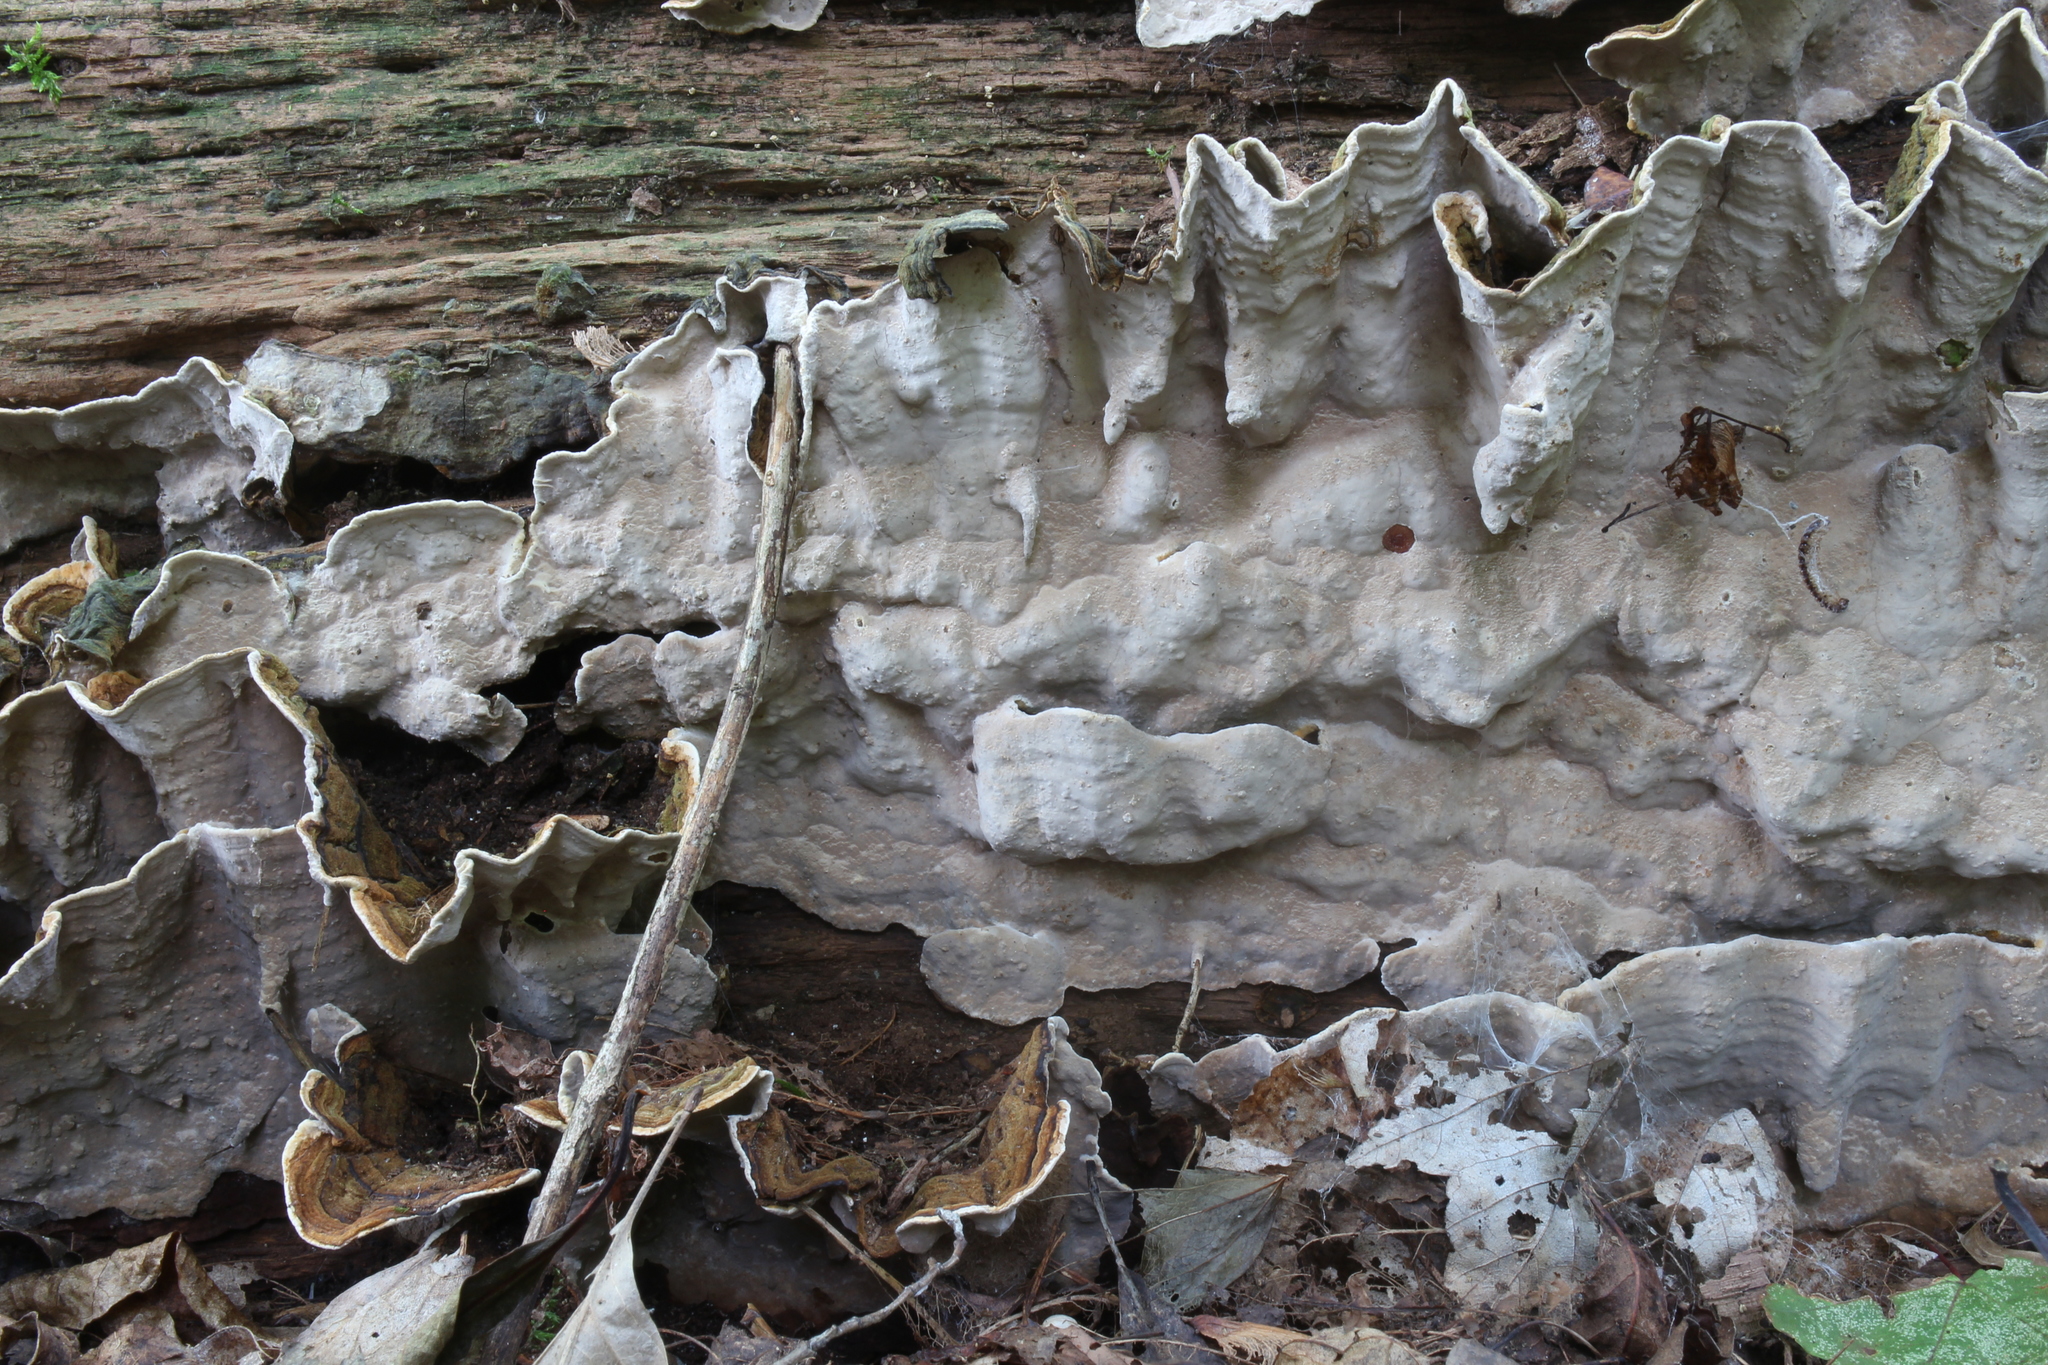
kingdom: Fungi
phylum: Basidiomycota
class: Agaricomycetes
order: Russulales
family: Stereaceae
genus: Xylobolus
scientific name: Xylobolus subpileatus
